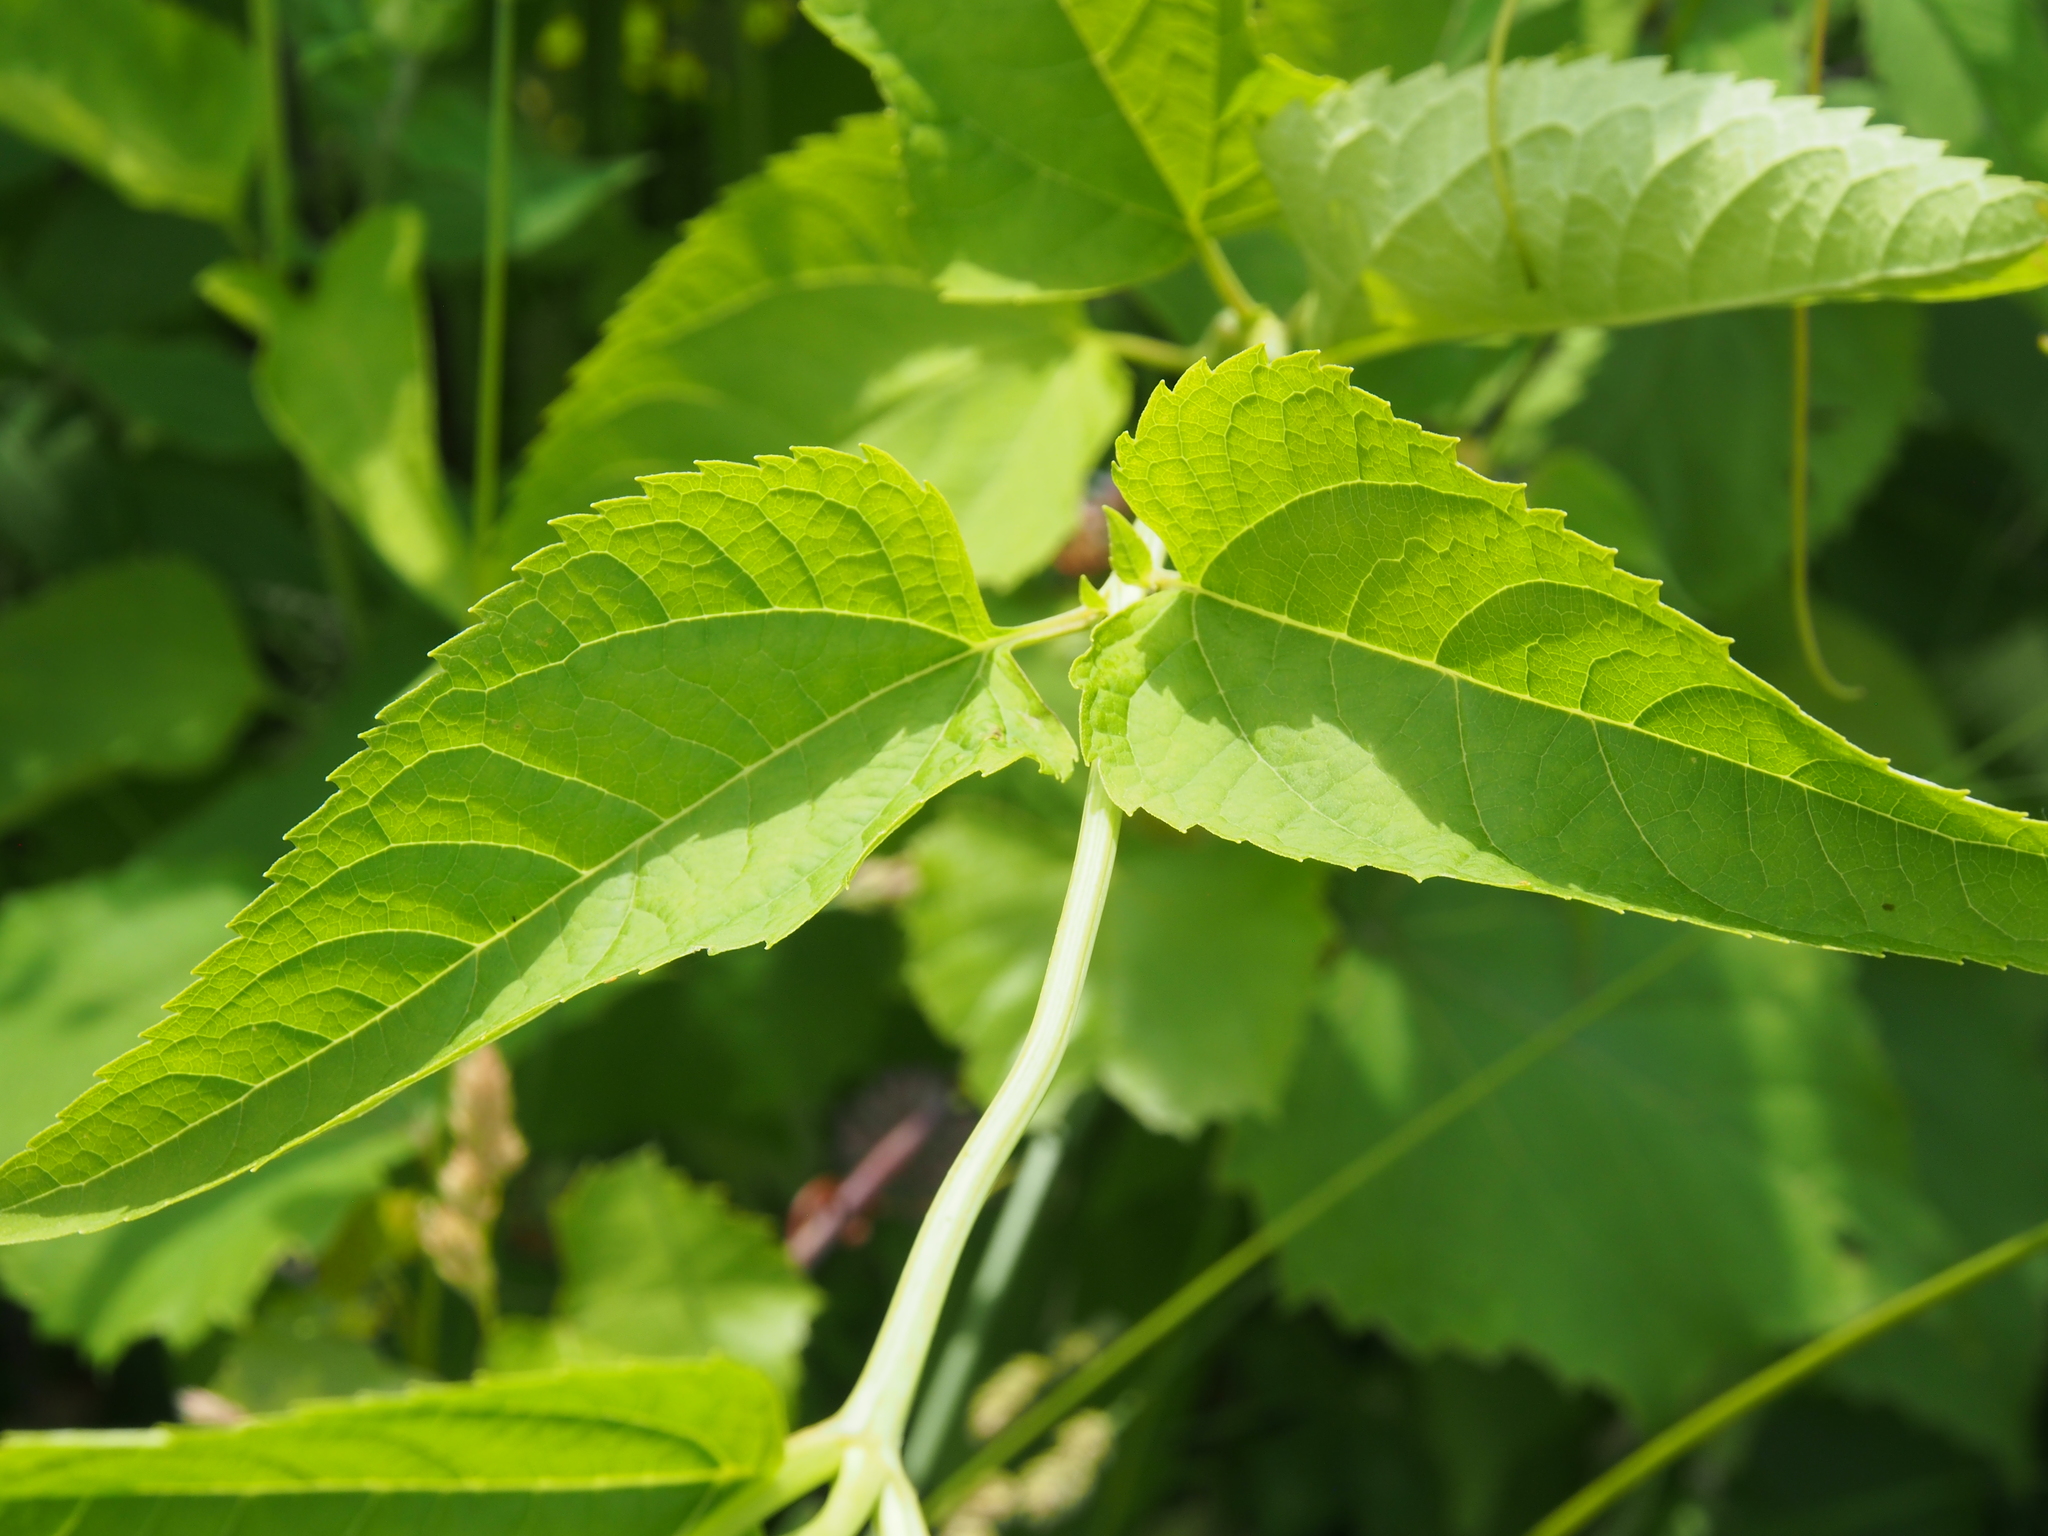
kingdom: Plantae
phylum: Tracheophyta
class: Magnoliopsida
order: Asterales
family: Asteraceae
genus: Heliopsis
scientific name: Heliopsis helianthoides
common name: False sunflower
